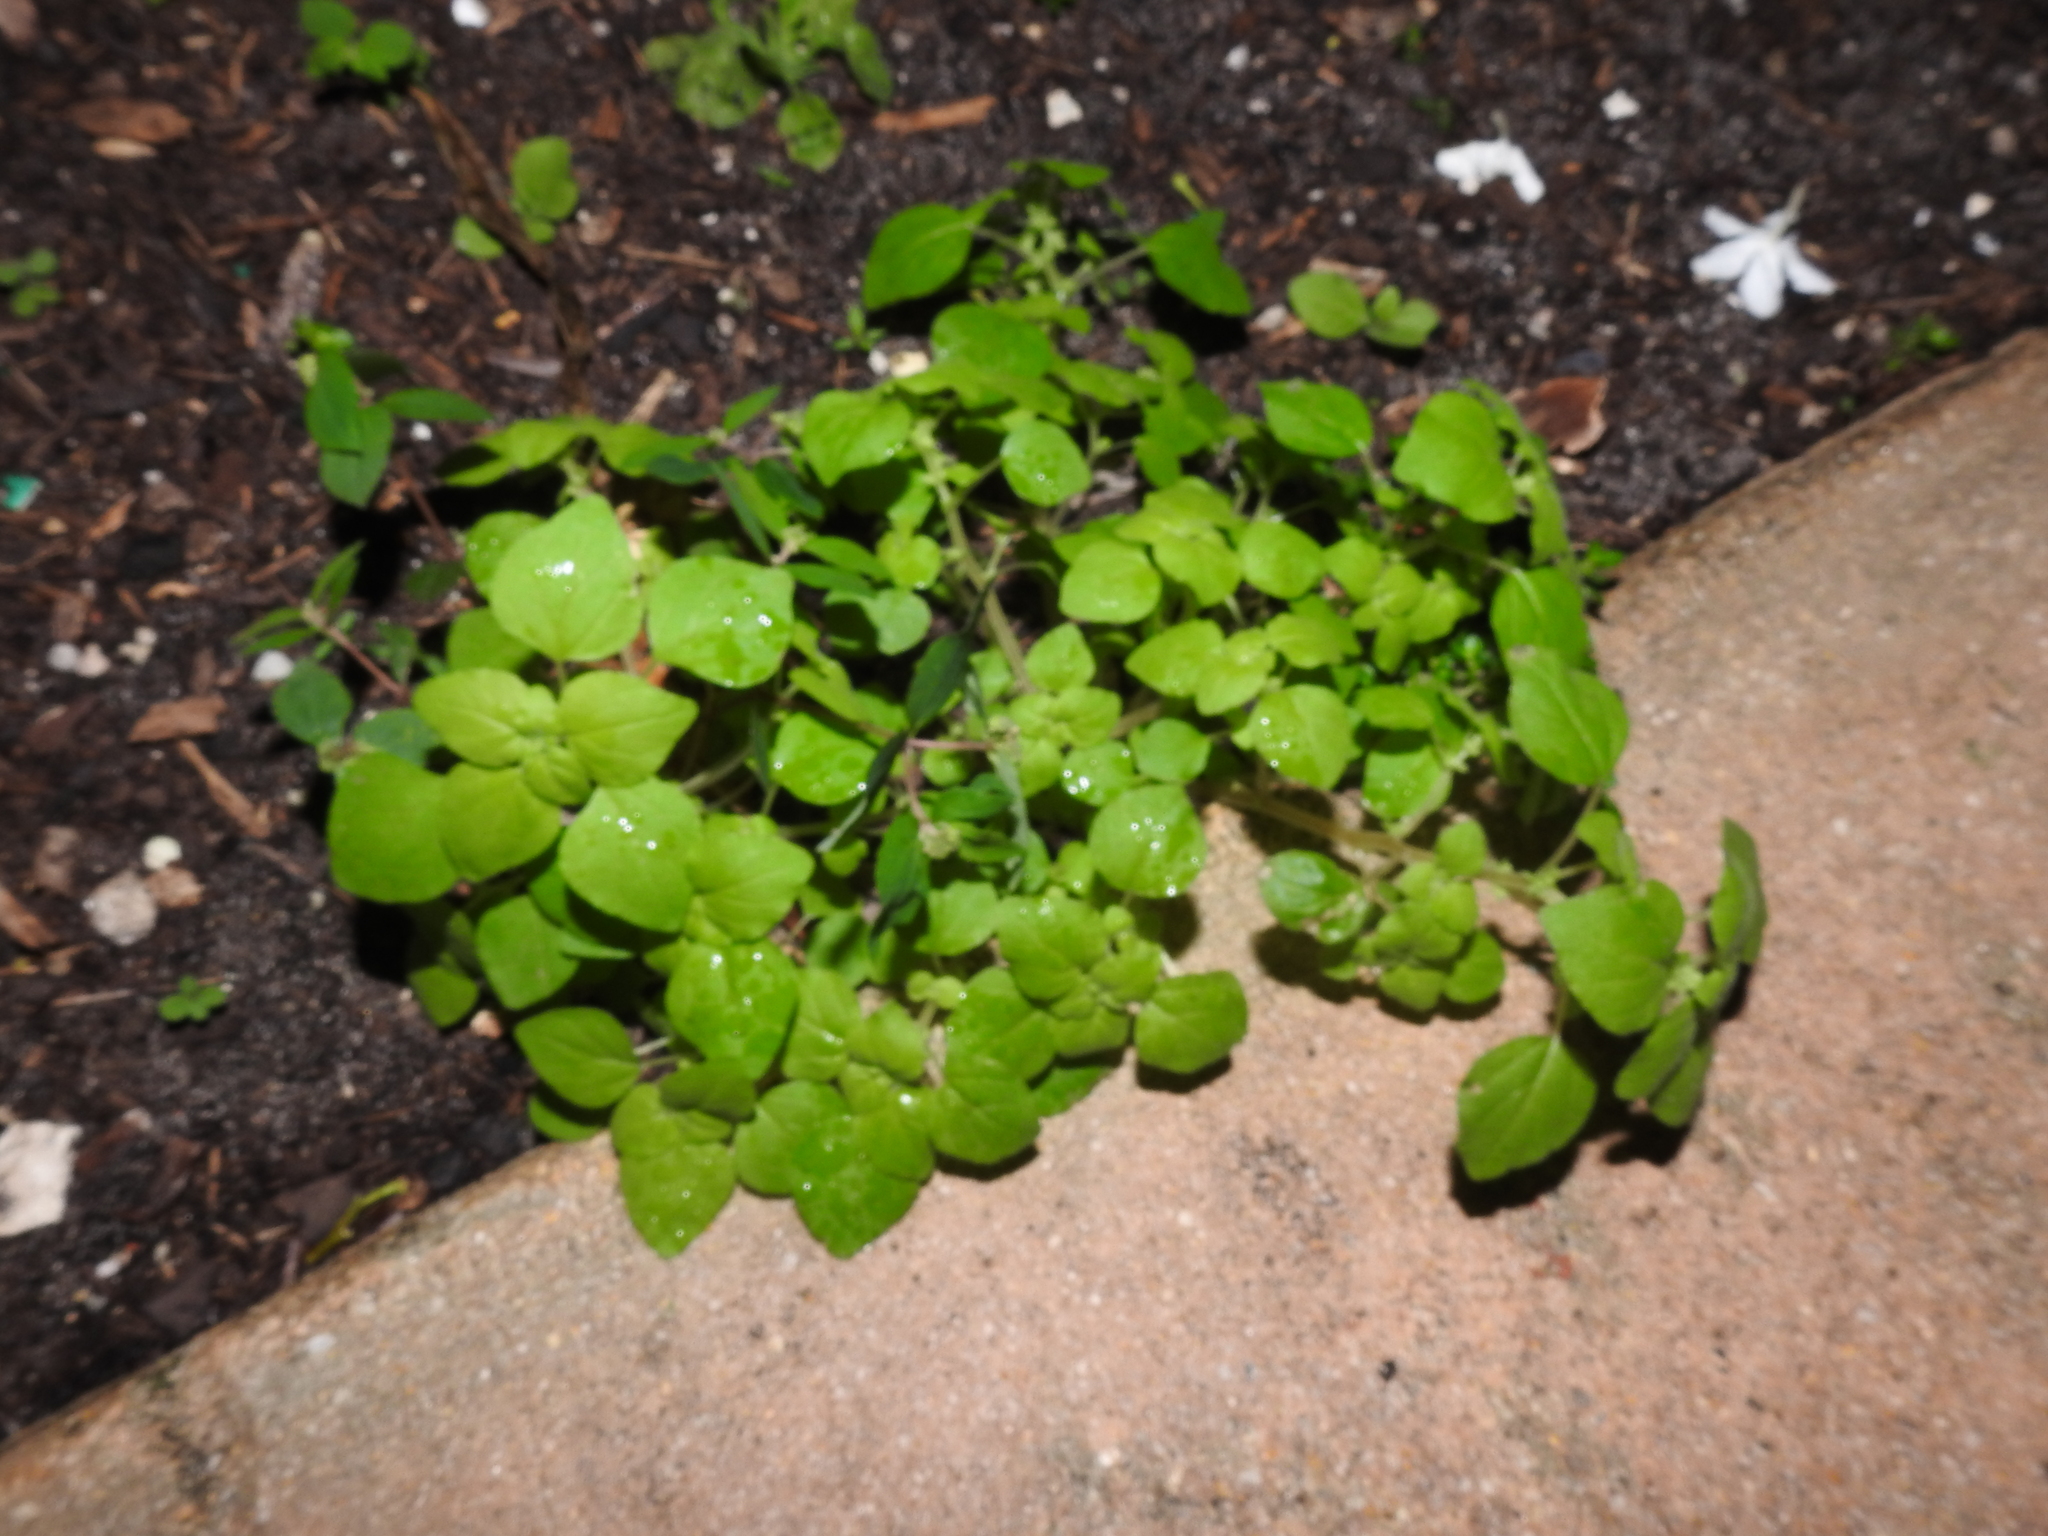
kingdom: Plantae
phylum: Tracheophyta
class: Magnoliopsida
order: Rosales
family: Urticaceae
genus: Parietaria
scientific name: Parietaria floridana
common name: Florida pellitory
